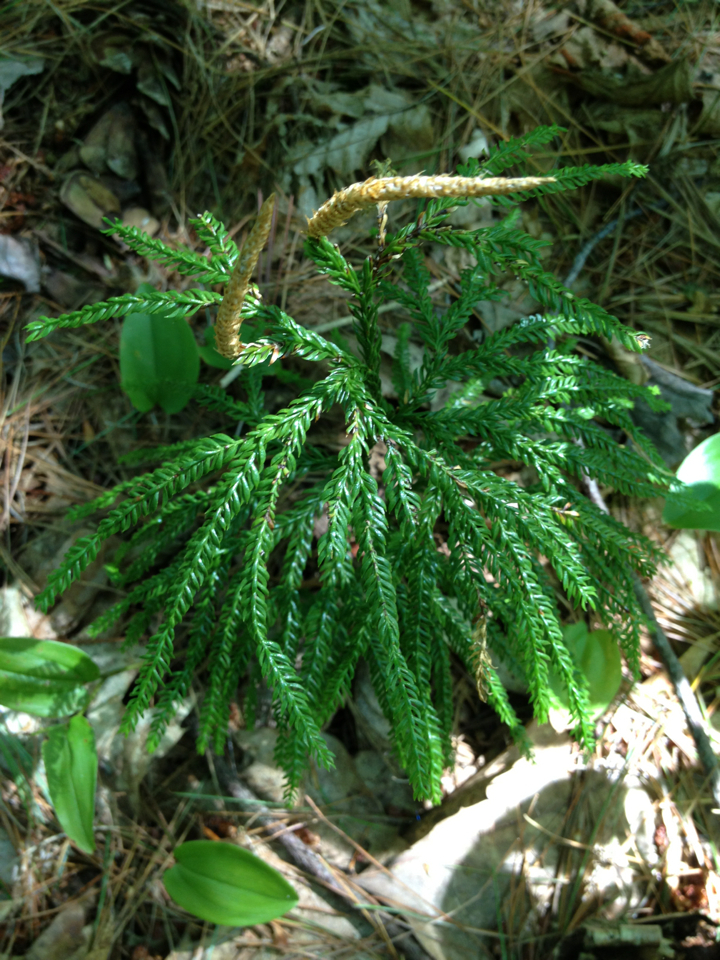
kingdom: Plantae
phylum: Tracheophyta
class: Lycopodiopsida
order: Lycopodiales
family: Lycopodiaceae
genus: Dendrolycopodium
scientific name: Dendrolycopodium obscurum
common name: Common ground-pine
